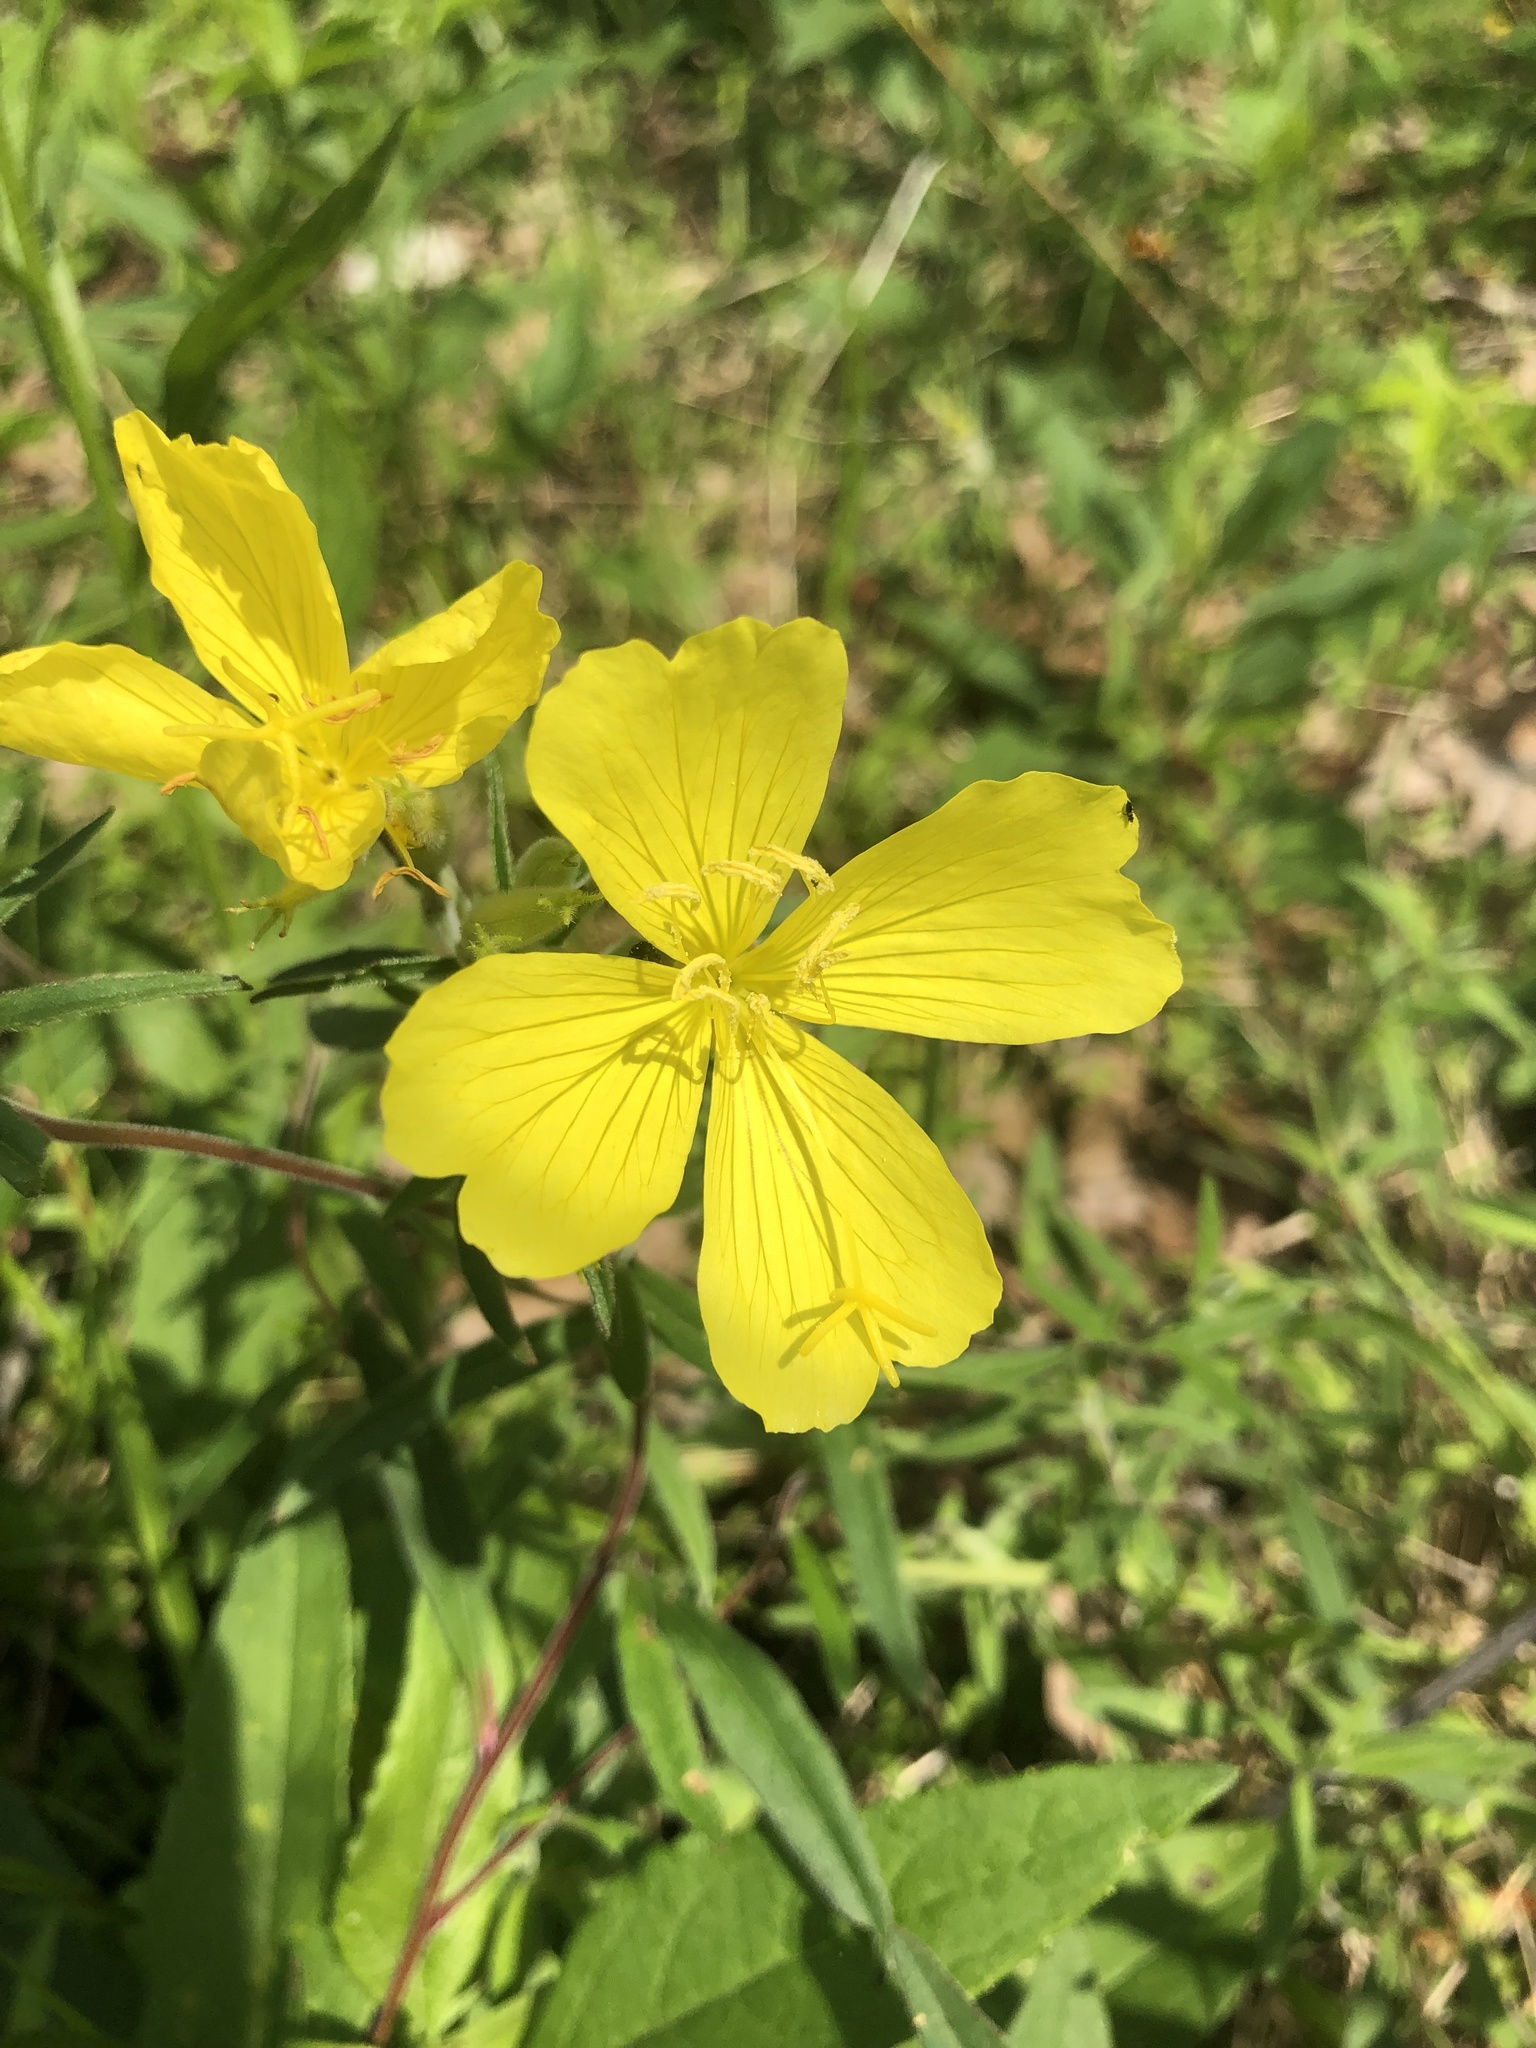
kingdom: Plantae
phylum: Tracheophyta
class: Magnoliopsida
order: Myrtales
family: Onagraceae
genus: Oenothera
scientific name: Oenothera fruticosa
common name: Southern sundrops
